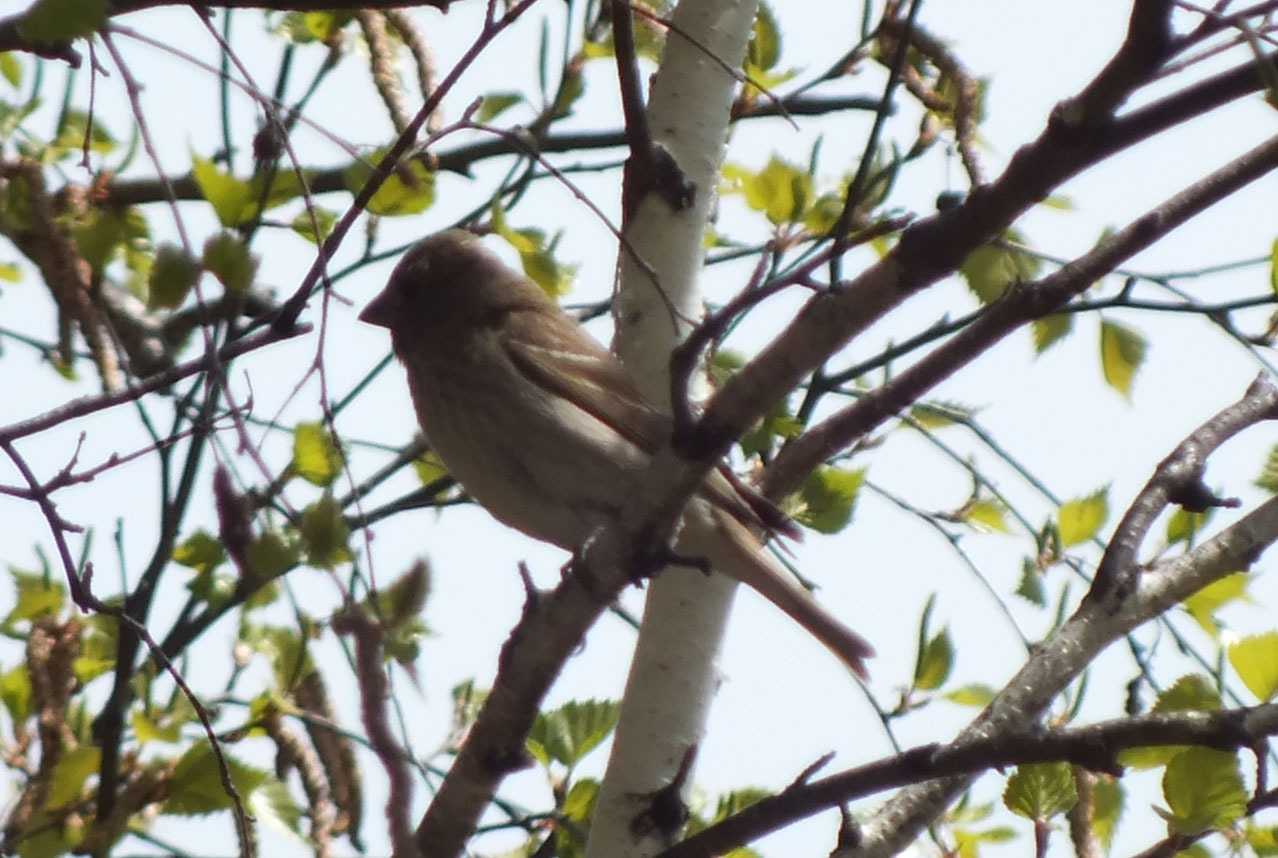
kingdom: Animalia
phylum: Chordata
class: Aves
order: Passeriformes
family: Fringillidae
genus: Carpodacus
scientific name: Carpodacus erythrinus
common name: Common rosefinch
